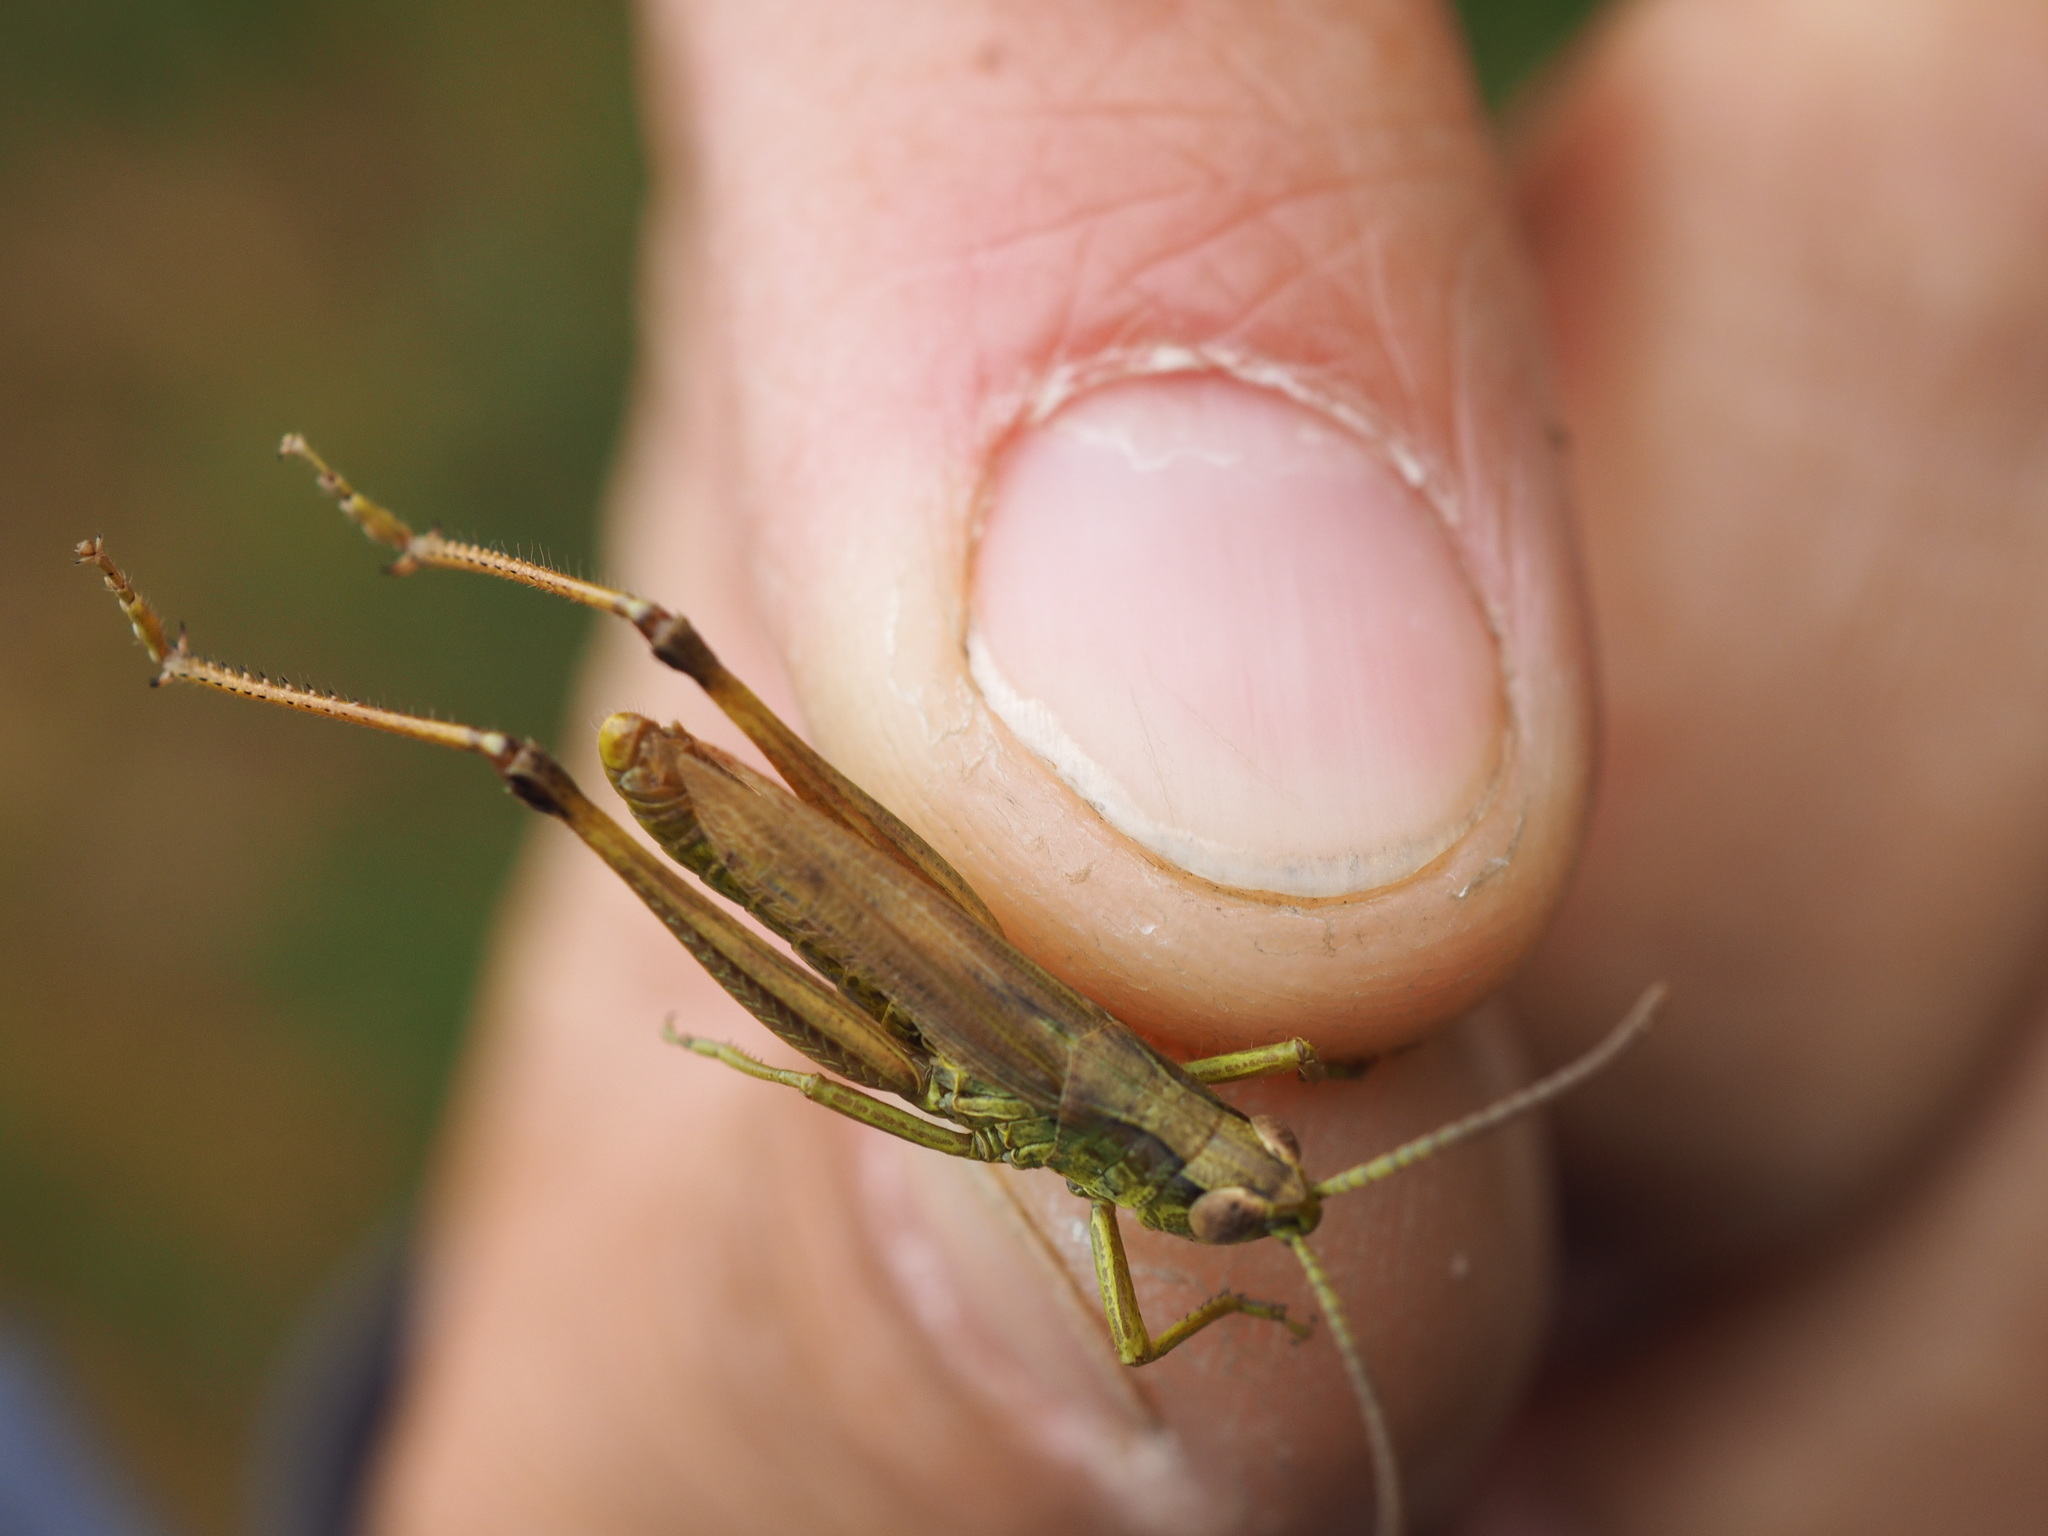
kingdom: Animalia
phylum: Arthropoda
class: Insecta
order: Orthoptera
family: Acrididae
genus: Pseudochorthippus
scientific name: Pseudochorthippus parallelus
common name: Meadow grasshopper
